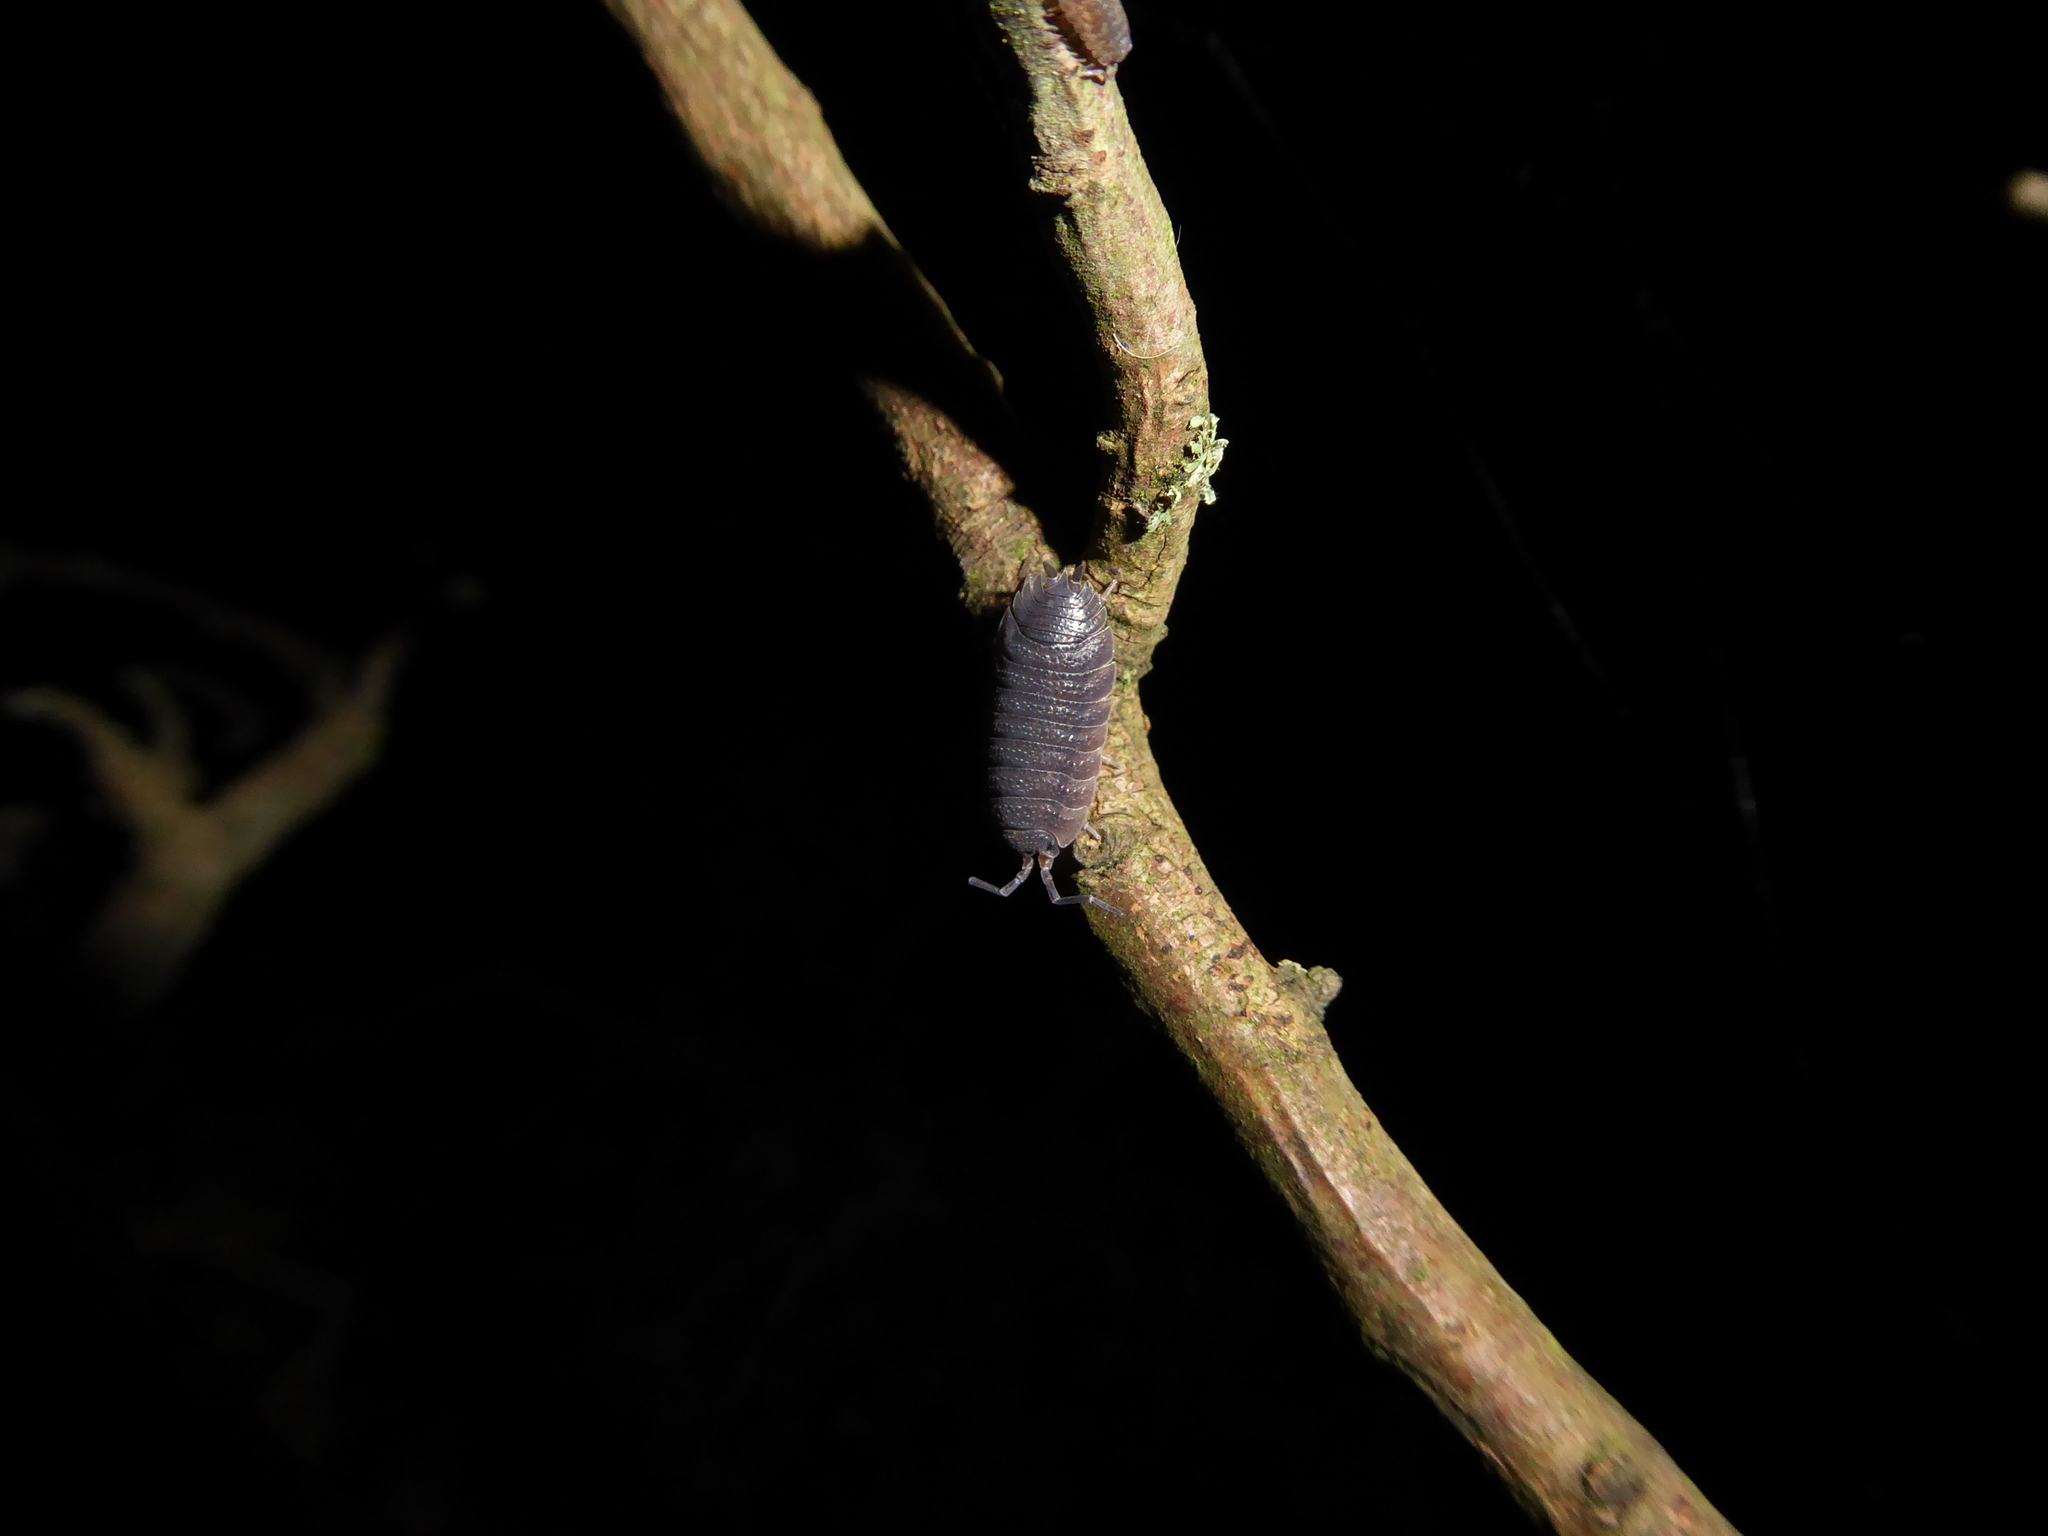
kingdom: Animalia
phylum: Arthropoda
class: Malacostraca
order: Isopoda
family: Porcellionidae
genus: Porcellio
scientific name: Porcellio scaber
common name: Common rough woodlouse
